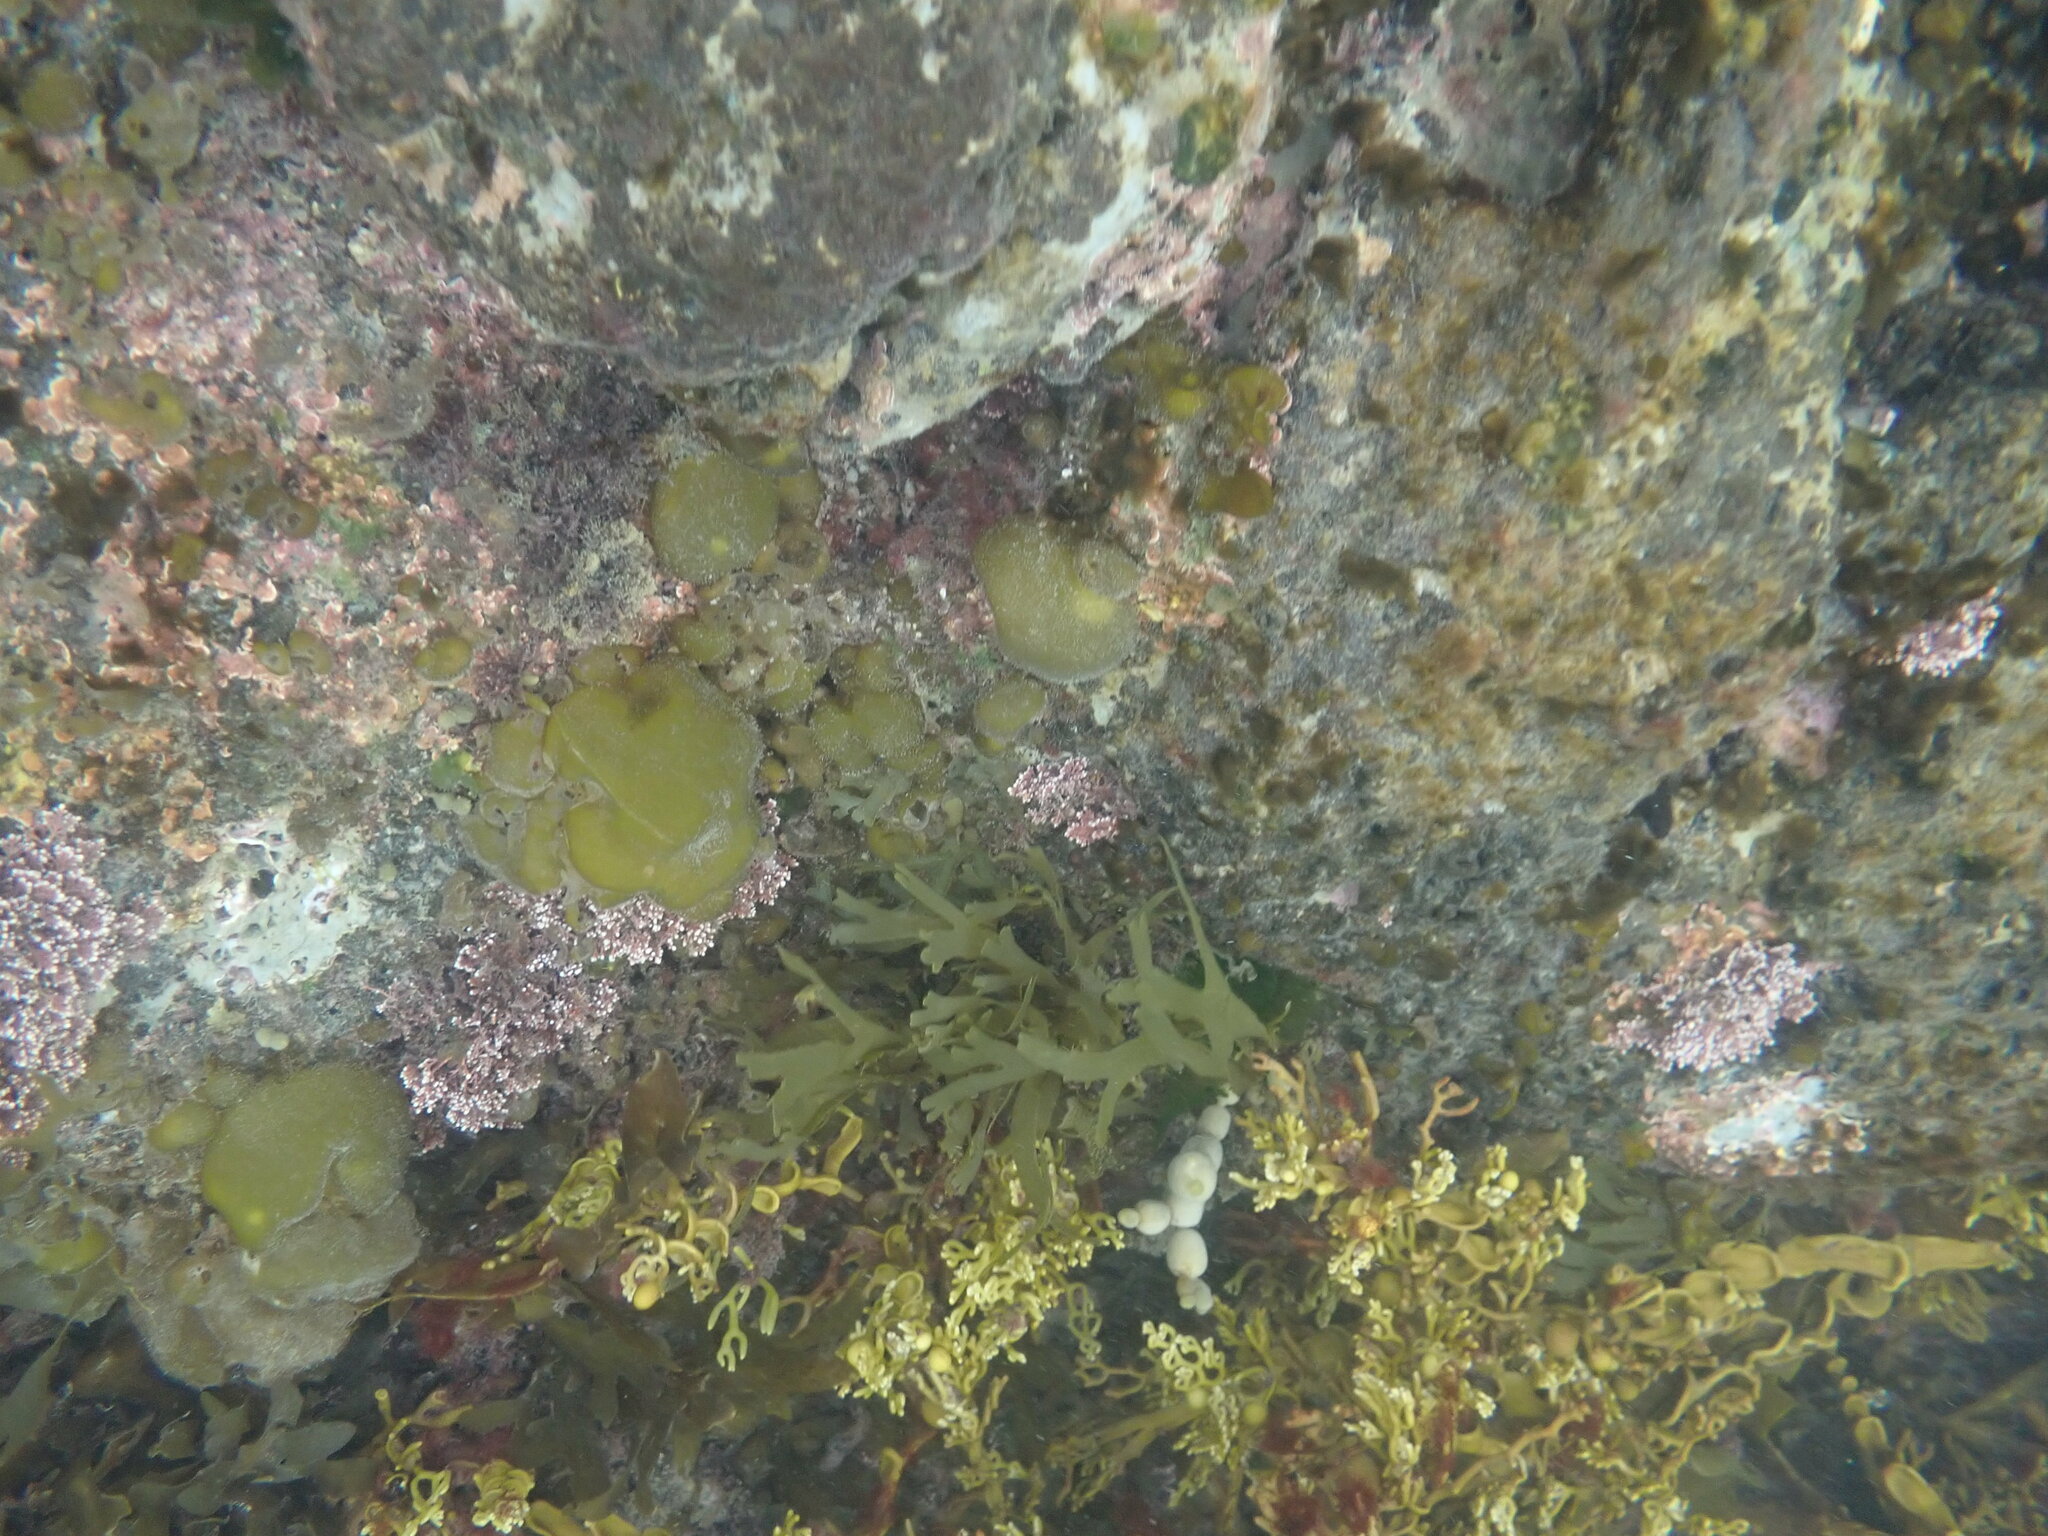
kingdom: Chromista
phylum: Ochrophyta
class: Phaeophyceae
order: Scytosiphonales
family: Scytosiphonaceae
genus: Colpomenia
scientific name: Colpomenia sinuosa
